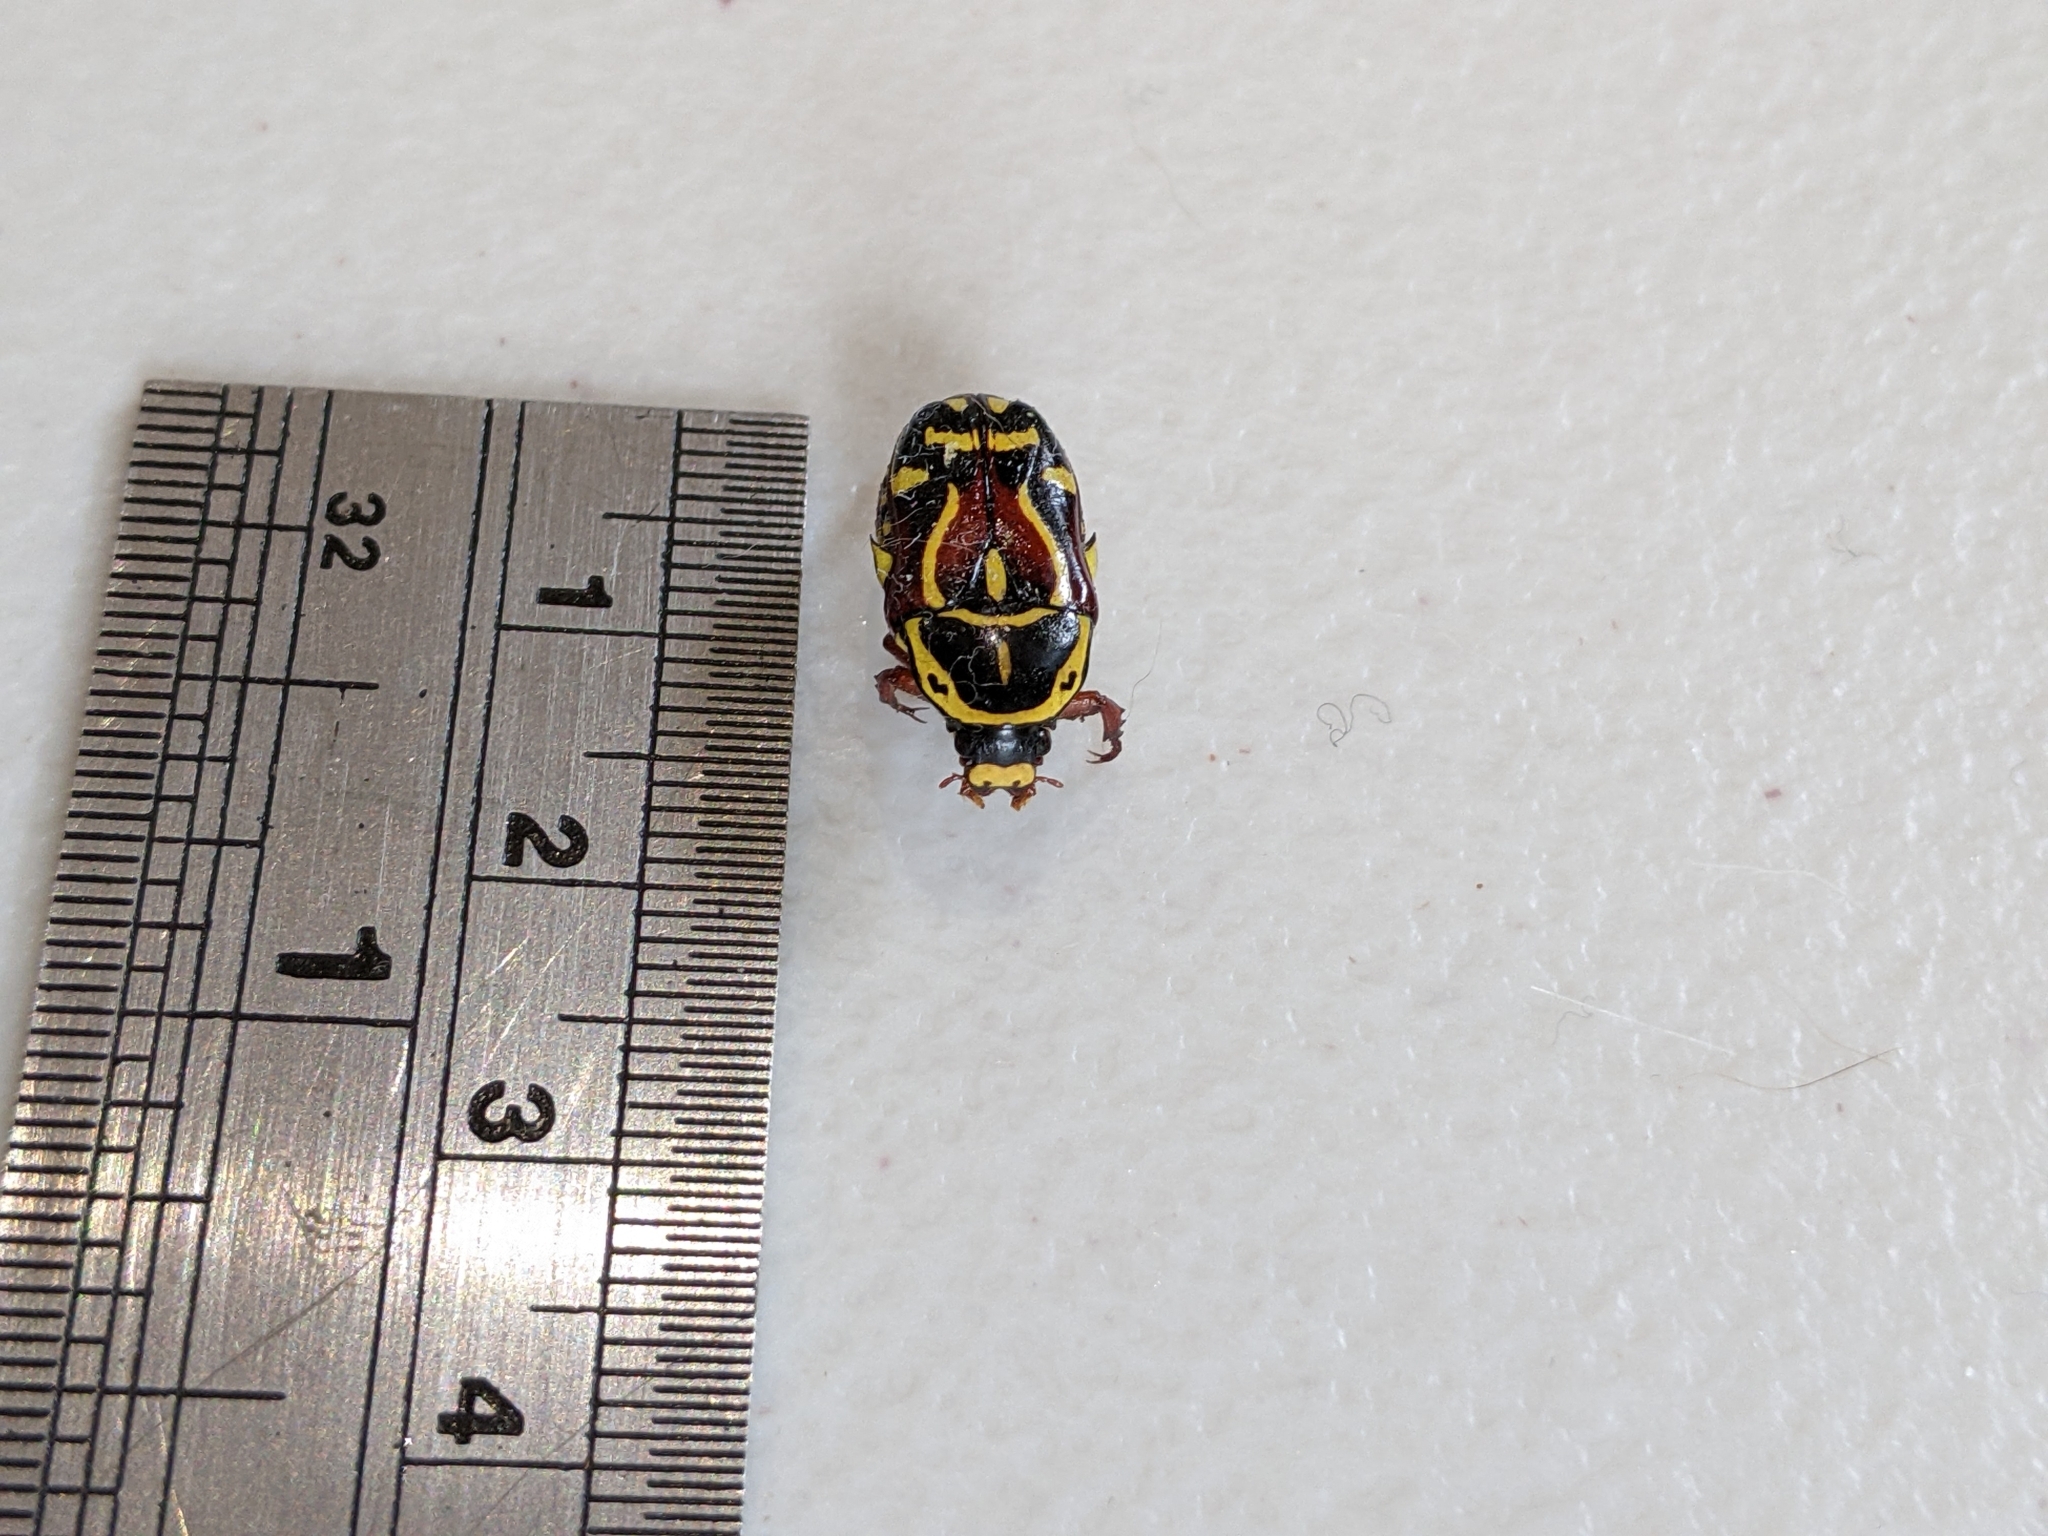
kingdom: Animalia
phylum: Arthropoda
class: Insecta
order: Coleoptera
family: Scarabaeidae
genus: Eupoecila
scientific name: Eupoecila australasiae
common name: Fiddler beetle
